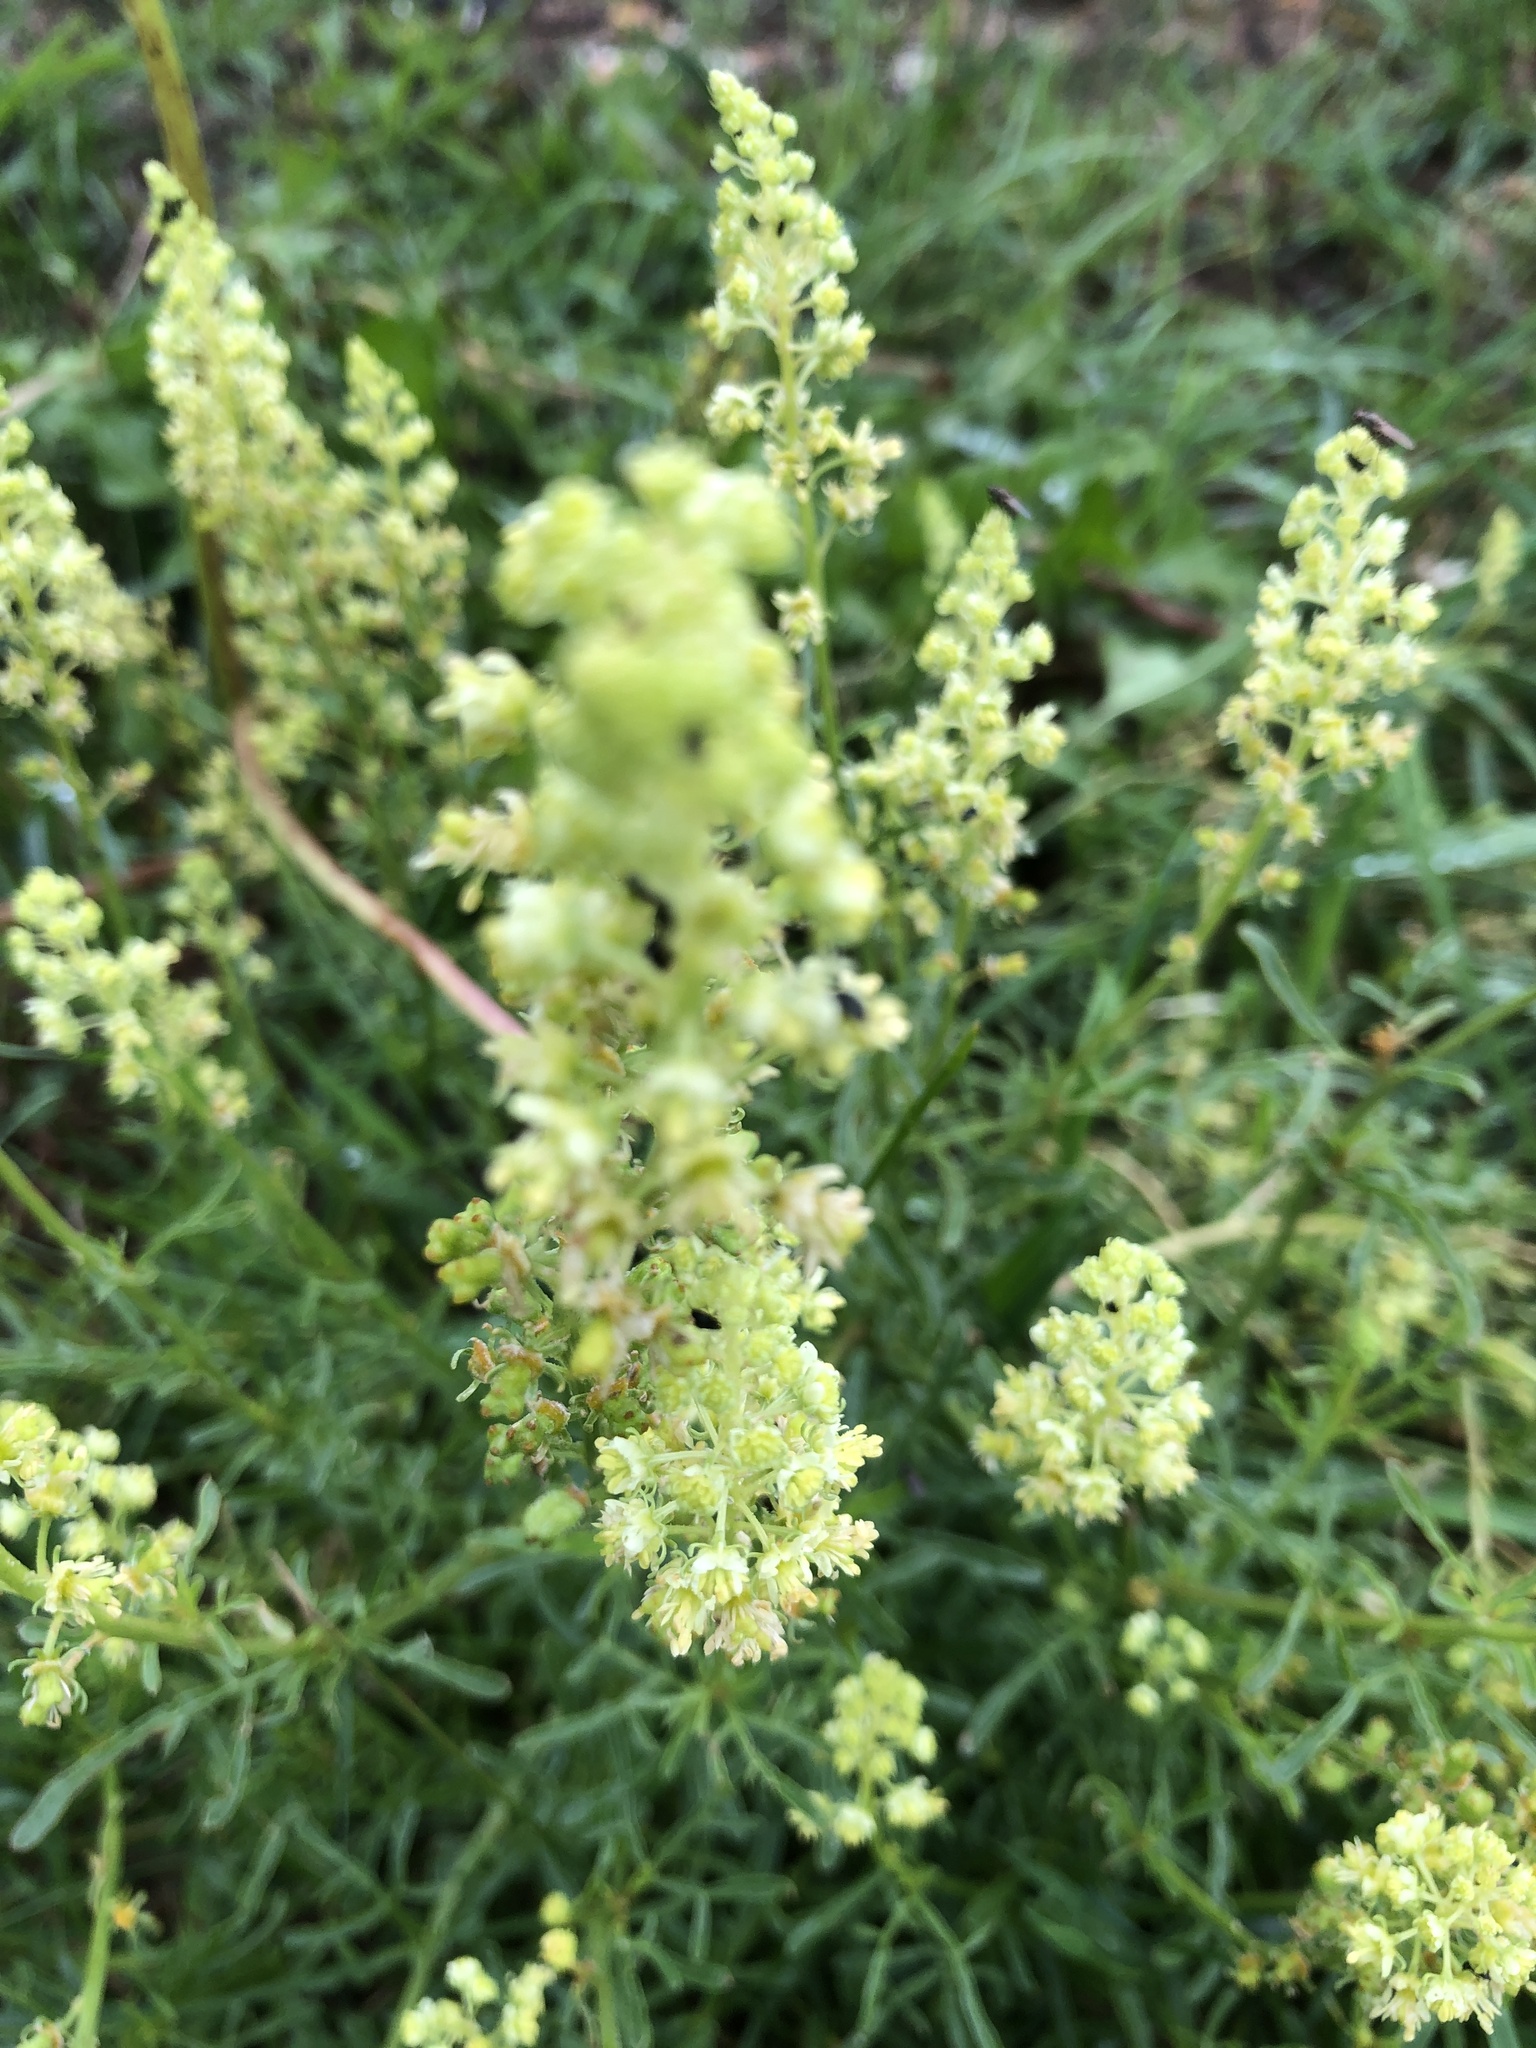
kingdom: Plantae
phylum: Tracheophyta
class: Magnoliopsida
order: Brassicales
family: Resedaceae
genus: Reseda
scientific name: Reseda lutea
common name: Wild mignonette
